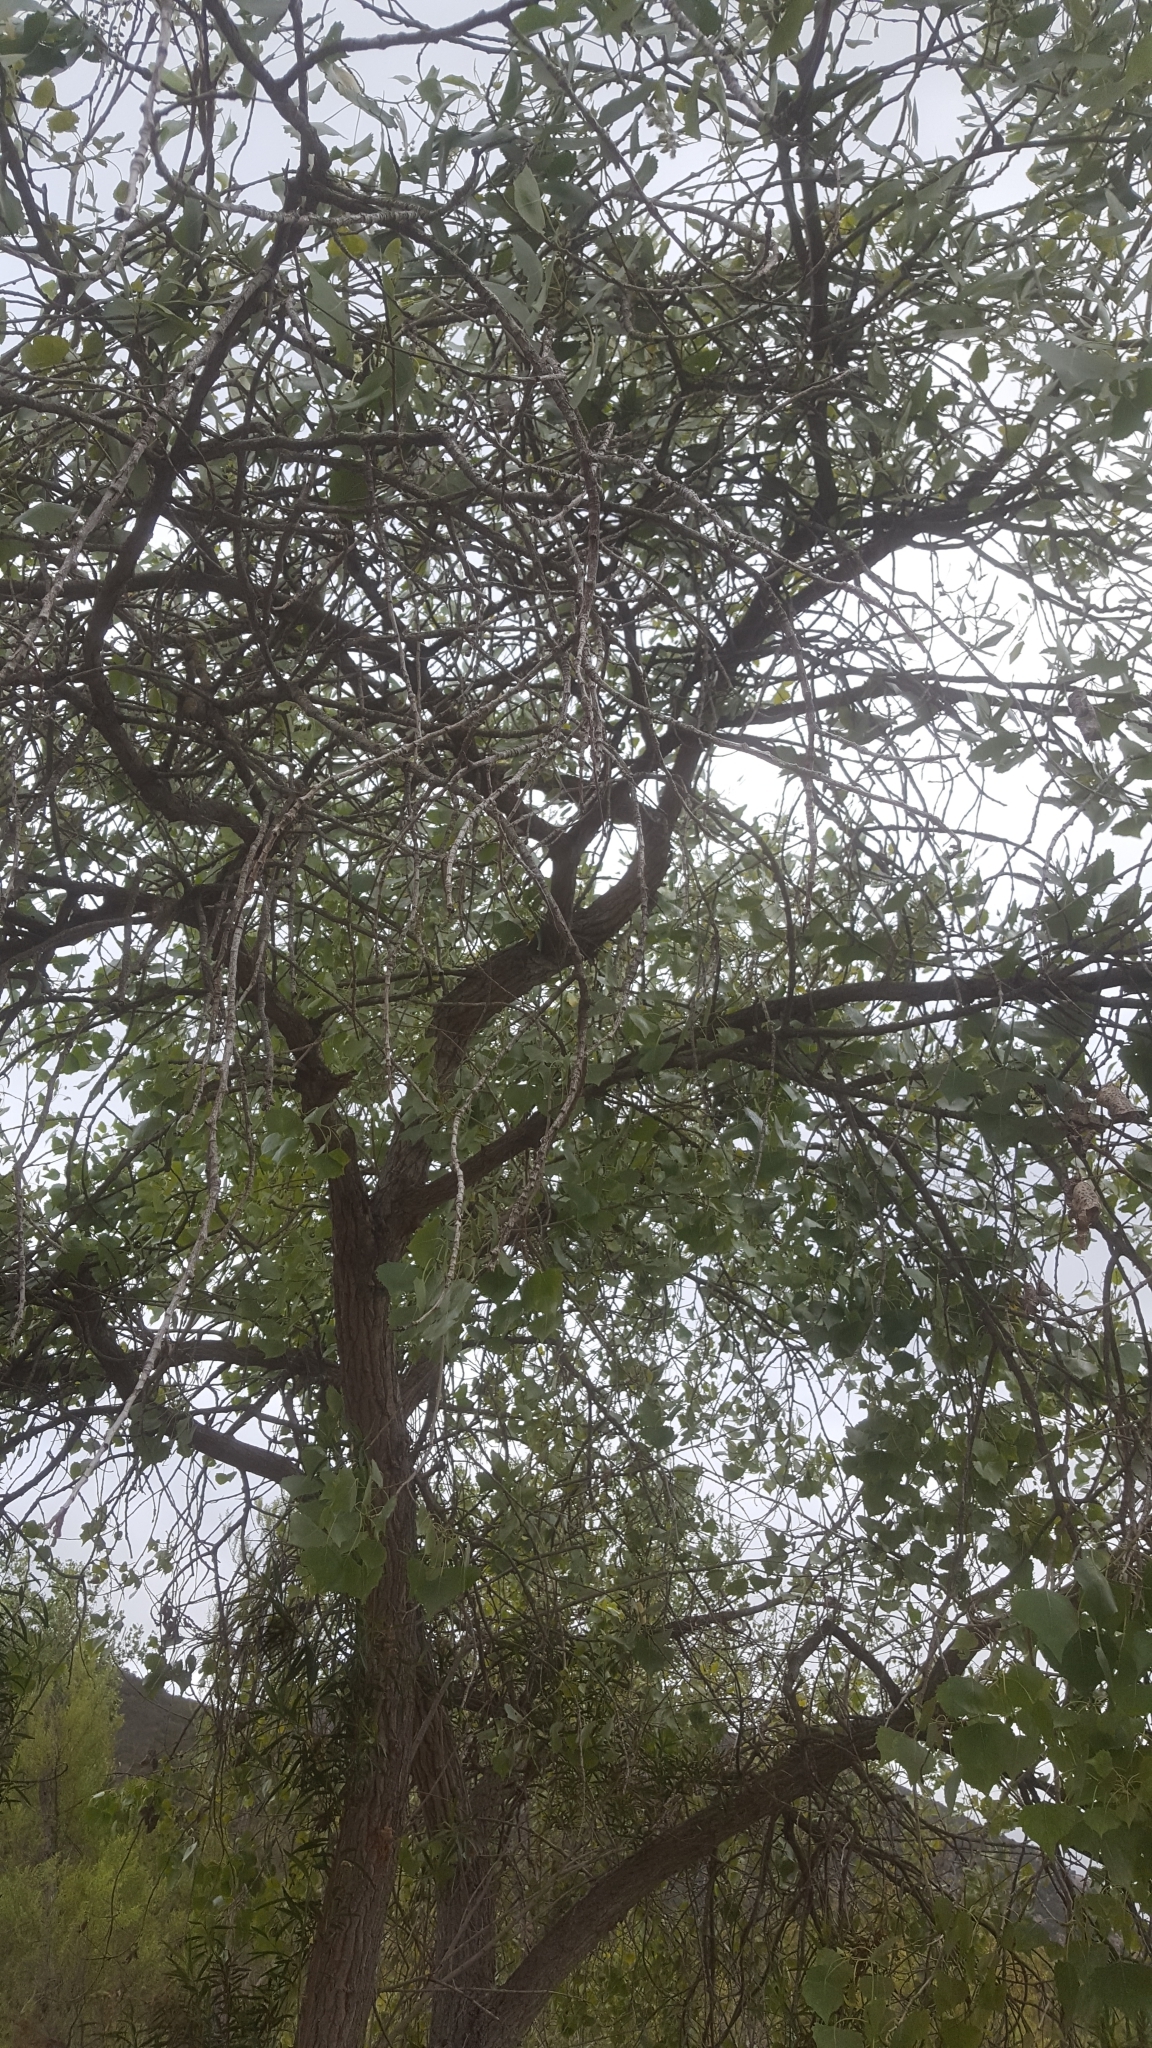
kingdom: Plantae
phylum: Tracheophyta
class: Magnoliopsida
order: Malpighiales
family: Salicaceae
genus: Populus
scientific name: Populus fremontii
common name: Fremont's cottonwood
